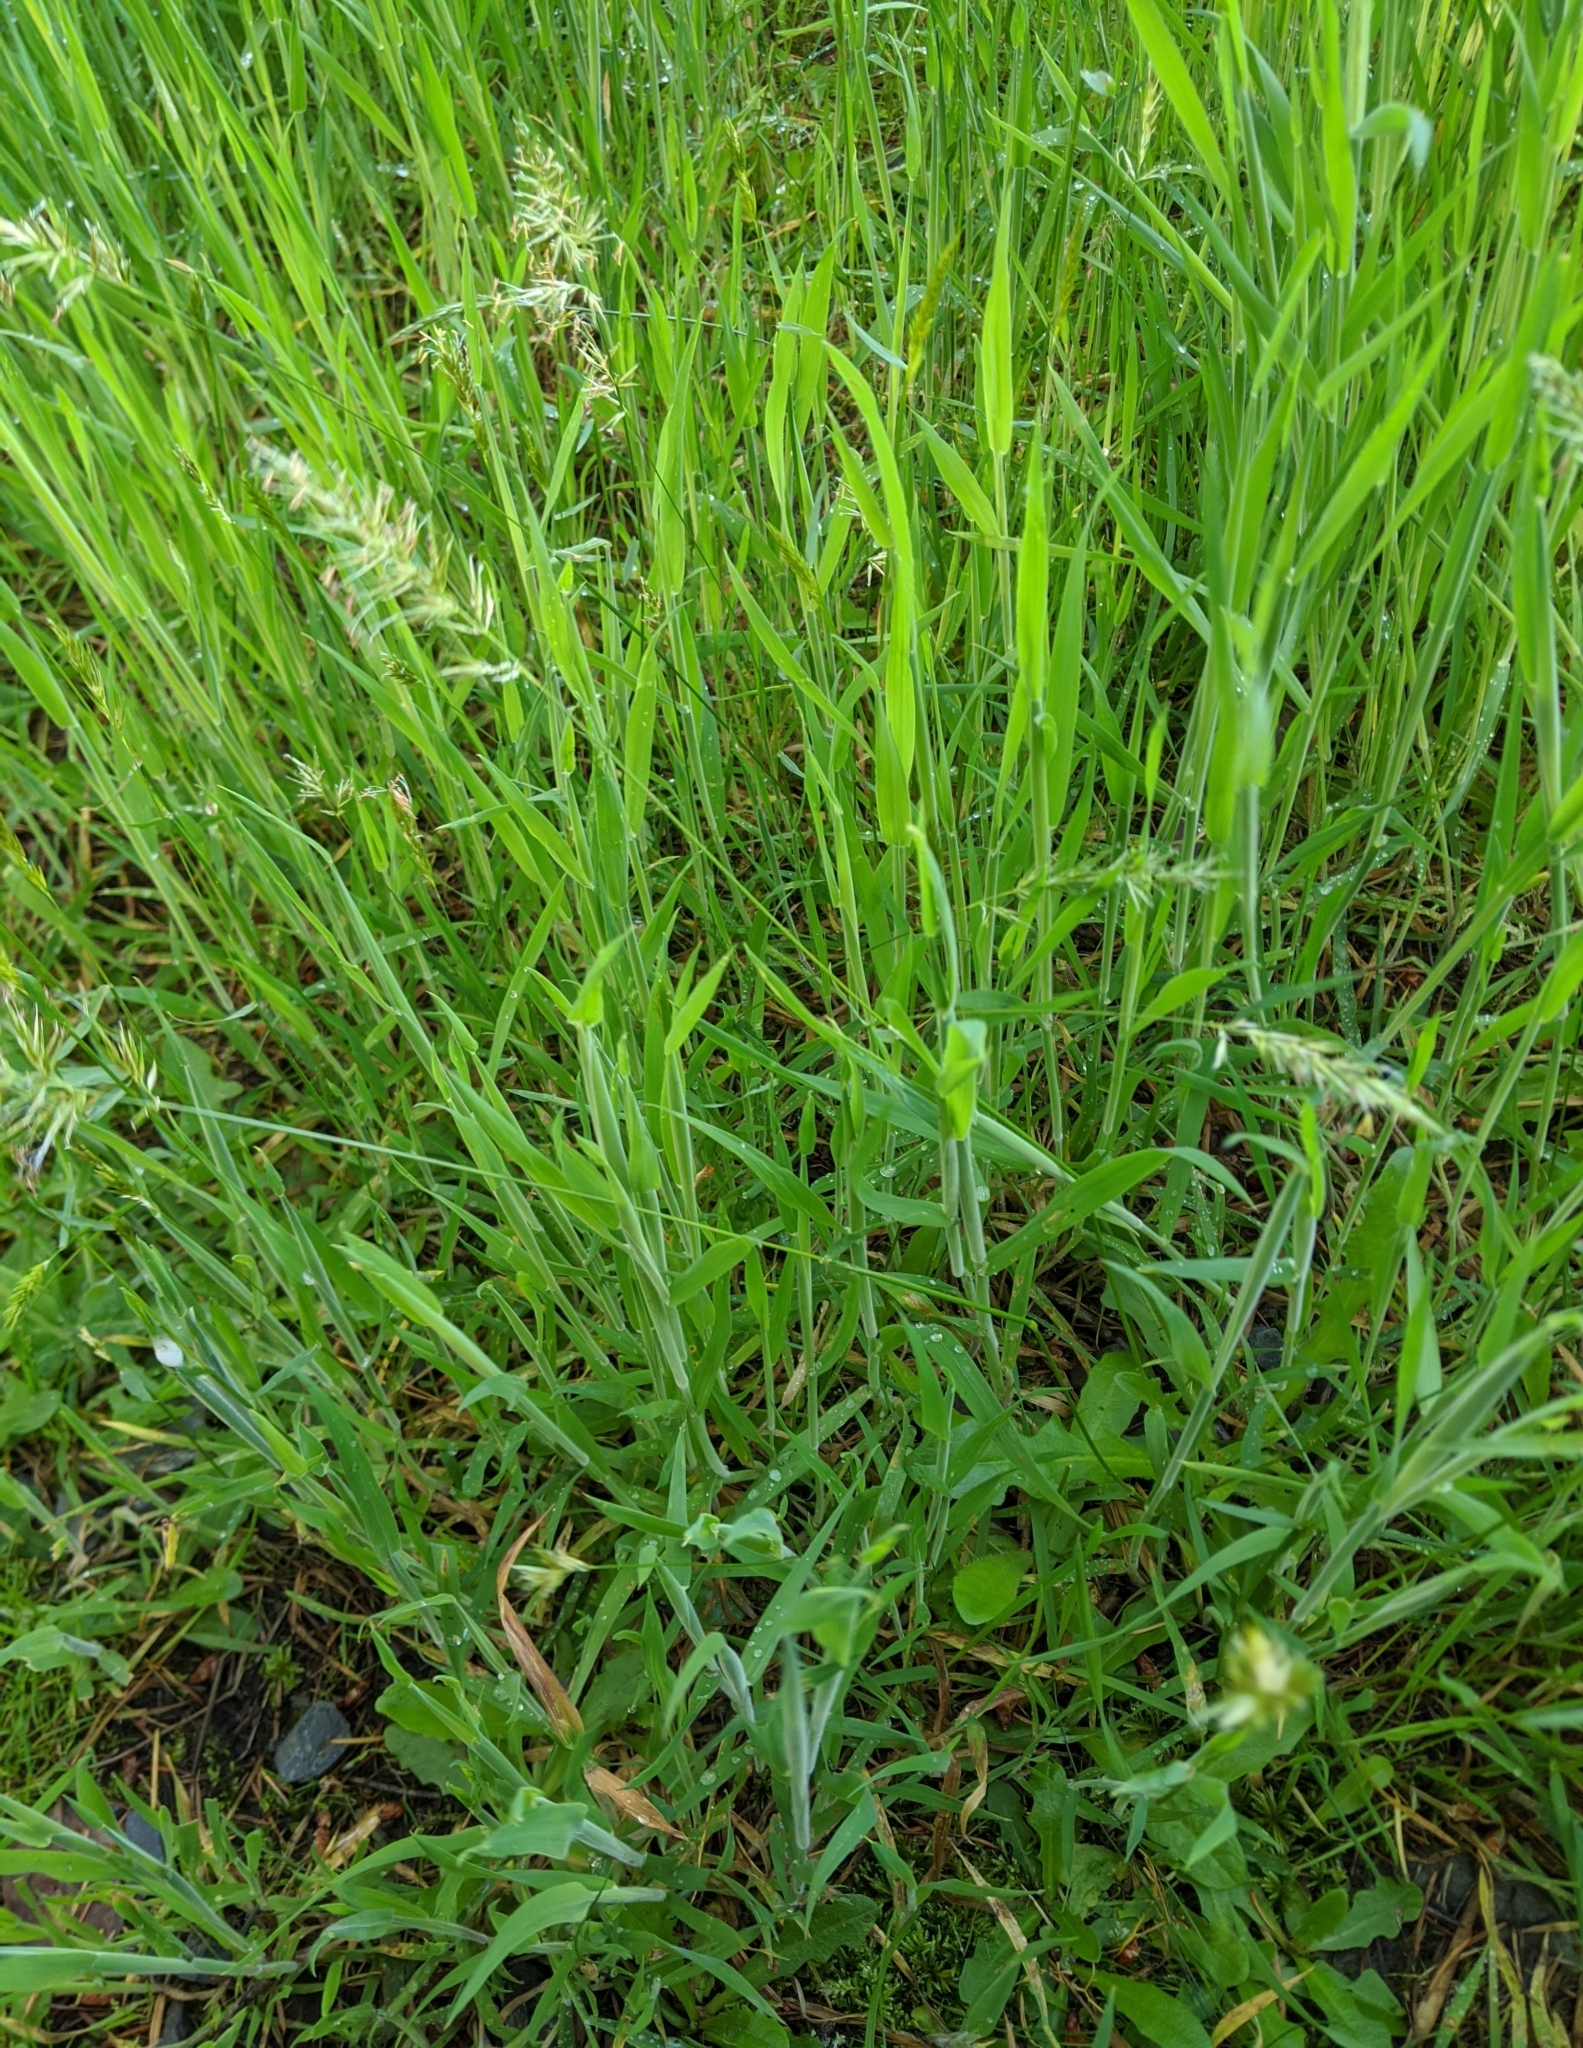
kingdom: Plantae
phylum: Tracheophyta
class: Liliopsida
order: Poales
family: Poaceae
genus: Anthoxanthum
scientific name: Anthoxanthum odoratum
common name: Sweet vernalgrass
